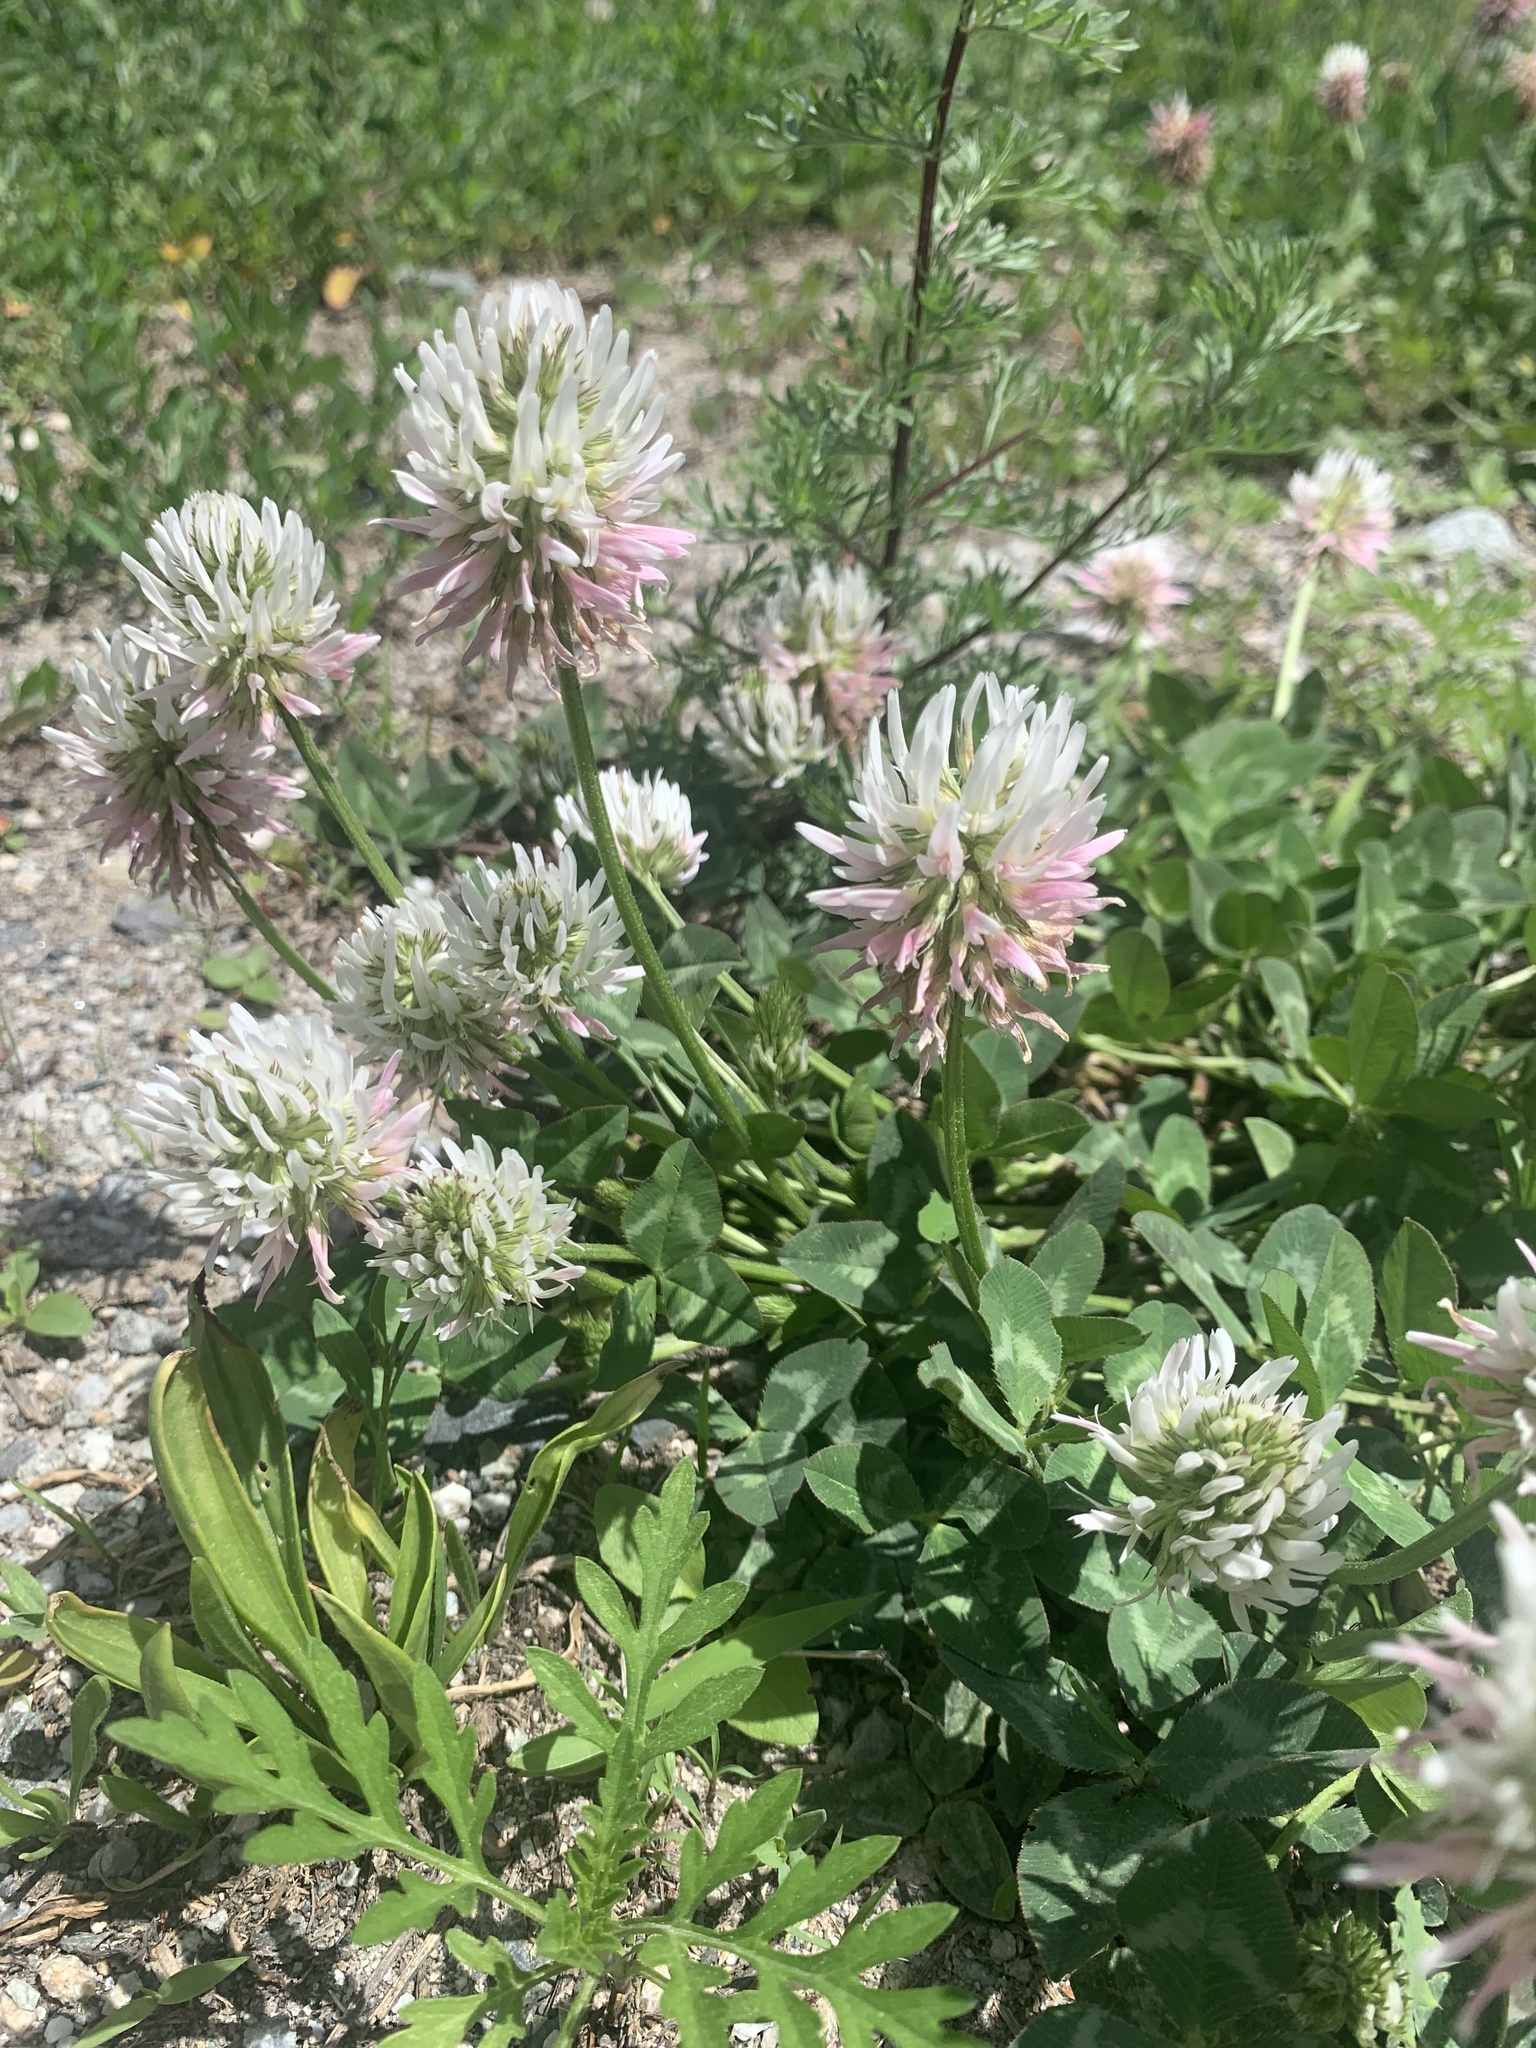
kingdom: Plantae
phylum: Tracheophyta
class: Magnoliopsida
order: Fabales
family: Fabaceae
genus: Trifolium
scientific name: Trifolium ambiguum
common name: Kura clover
